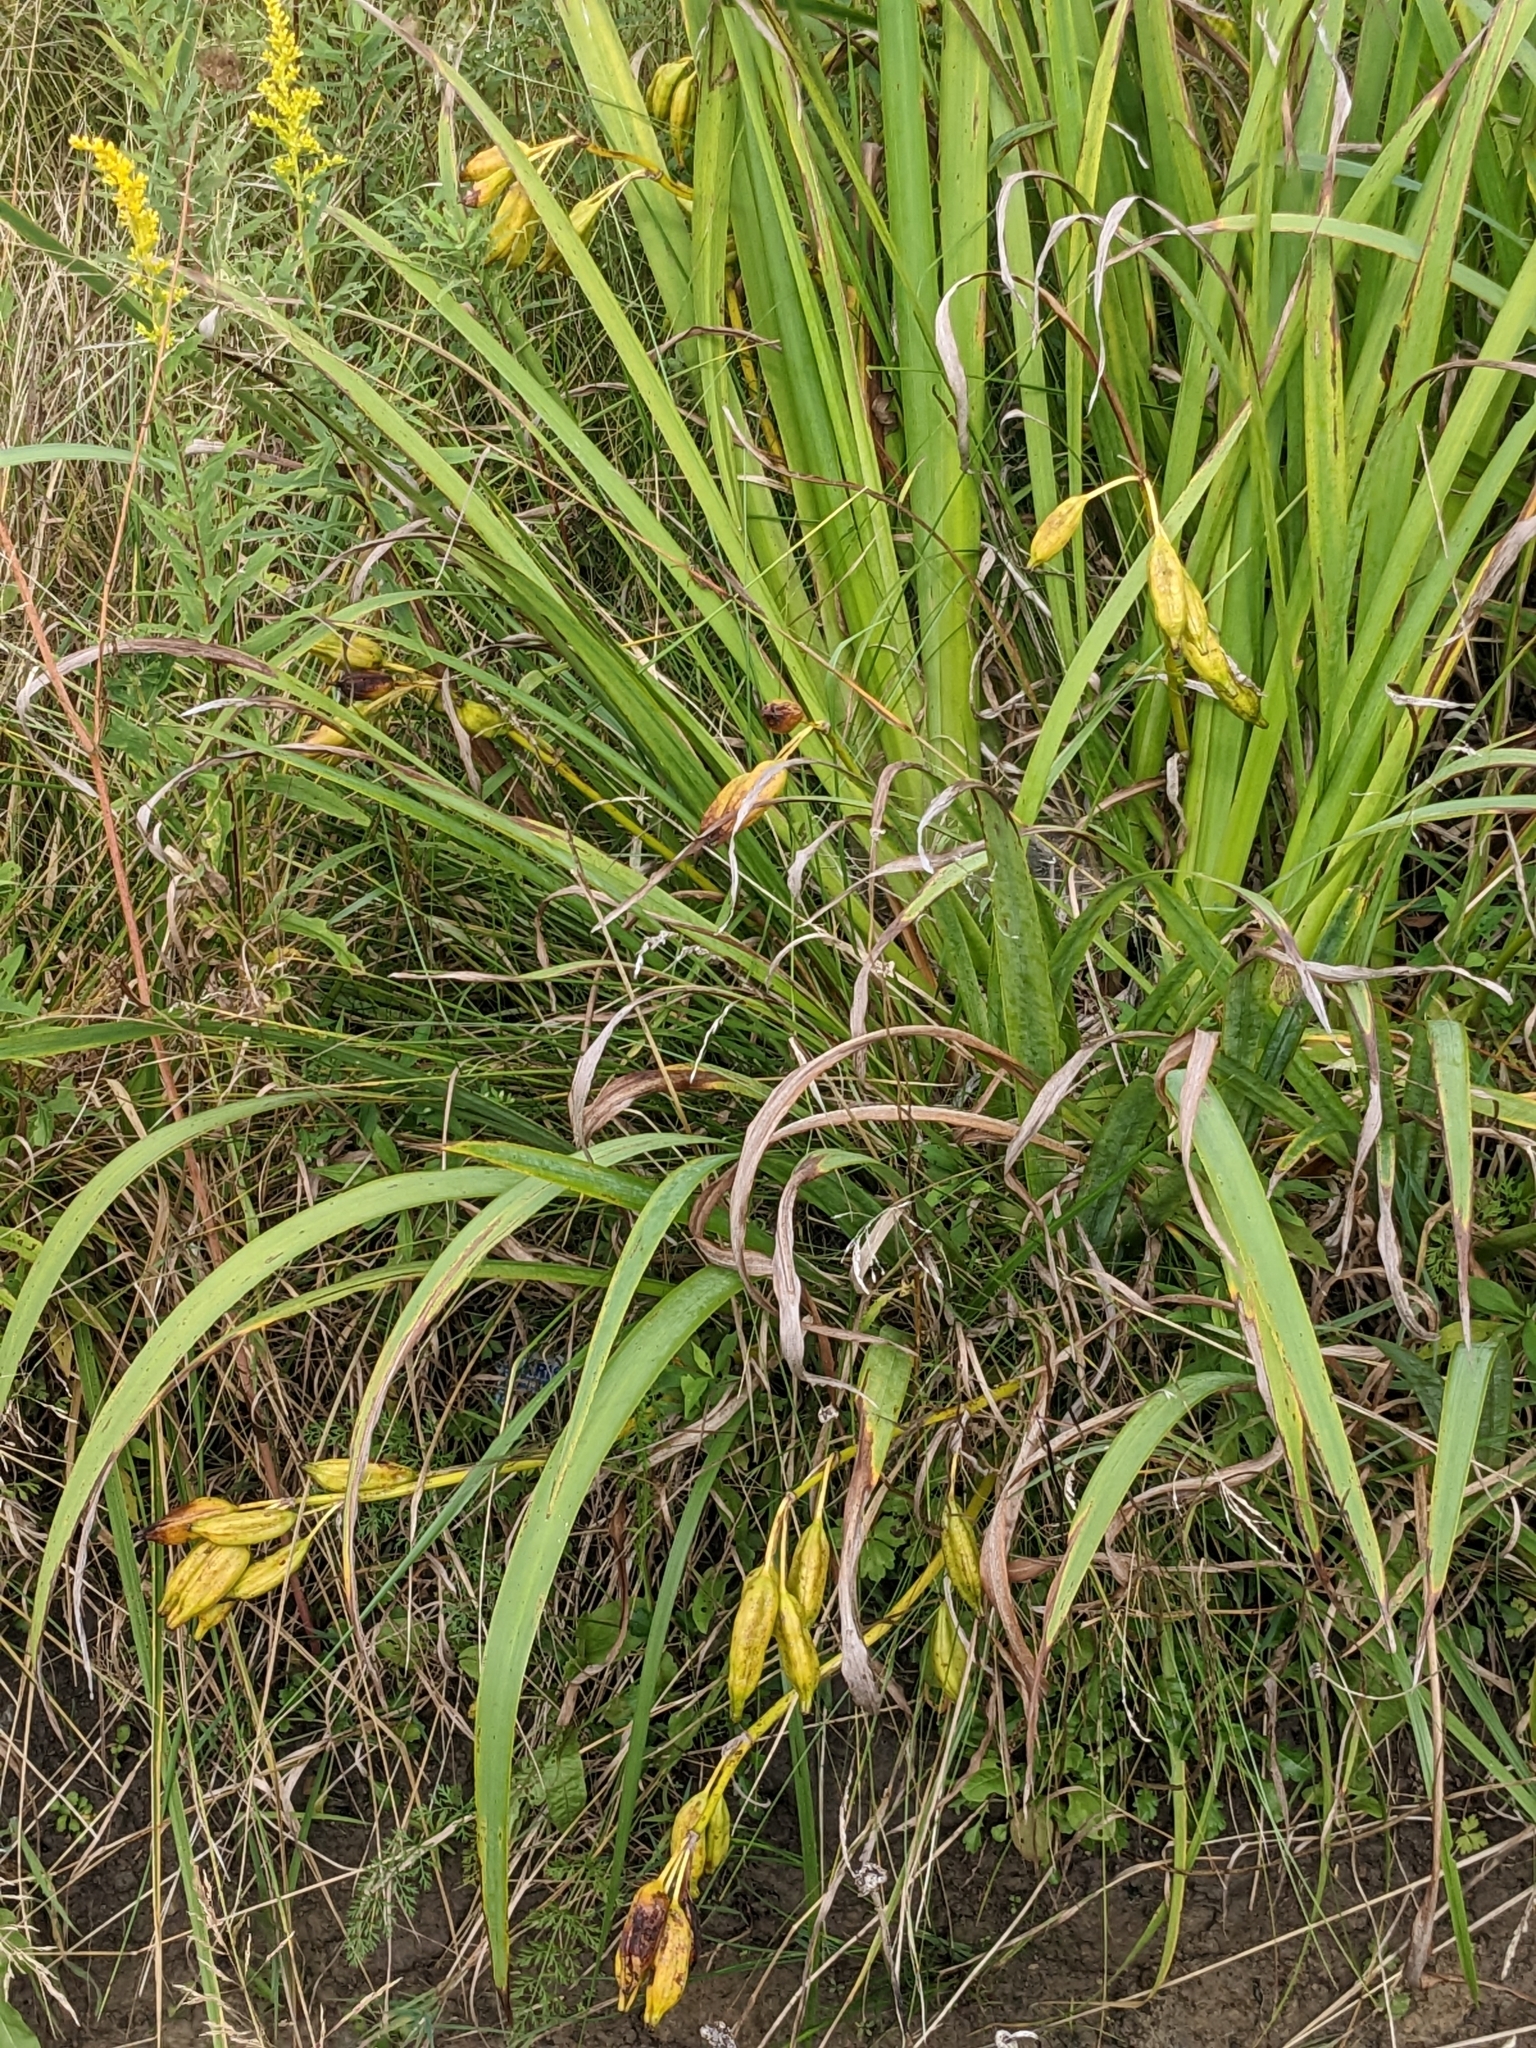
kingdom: Plantae
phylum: Tracheophyta
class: Liliopsida
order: Asparagales
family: Iridaceae
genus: Iris
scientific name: Iris pseudacorus
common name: Yellow flag
